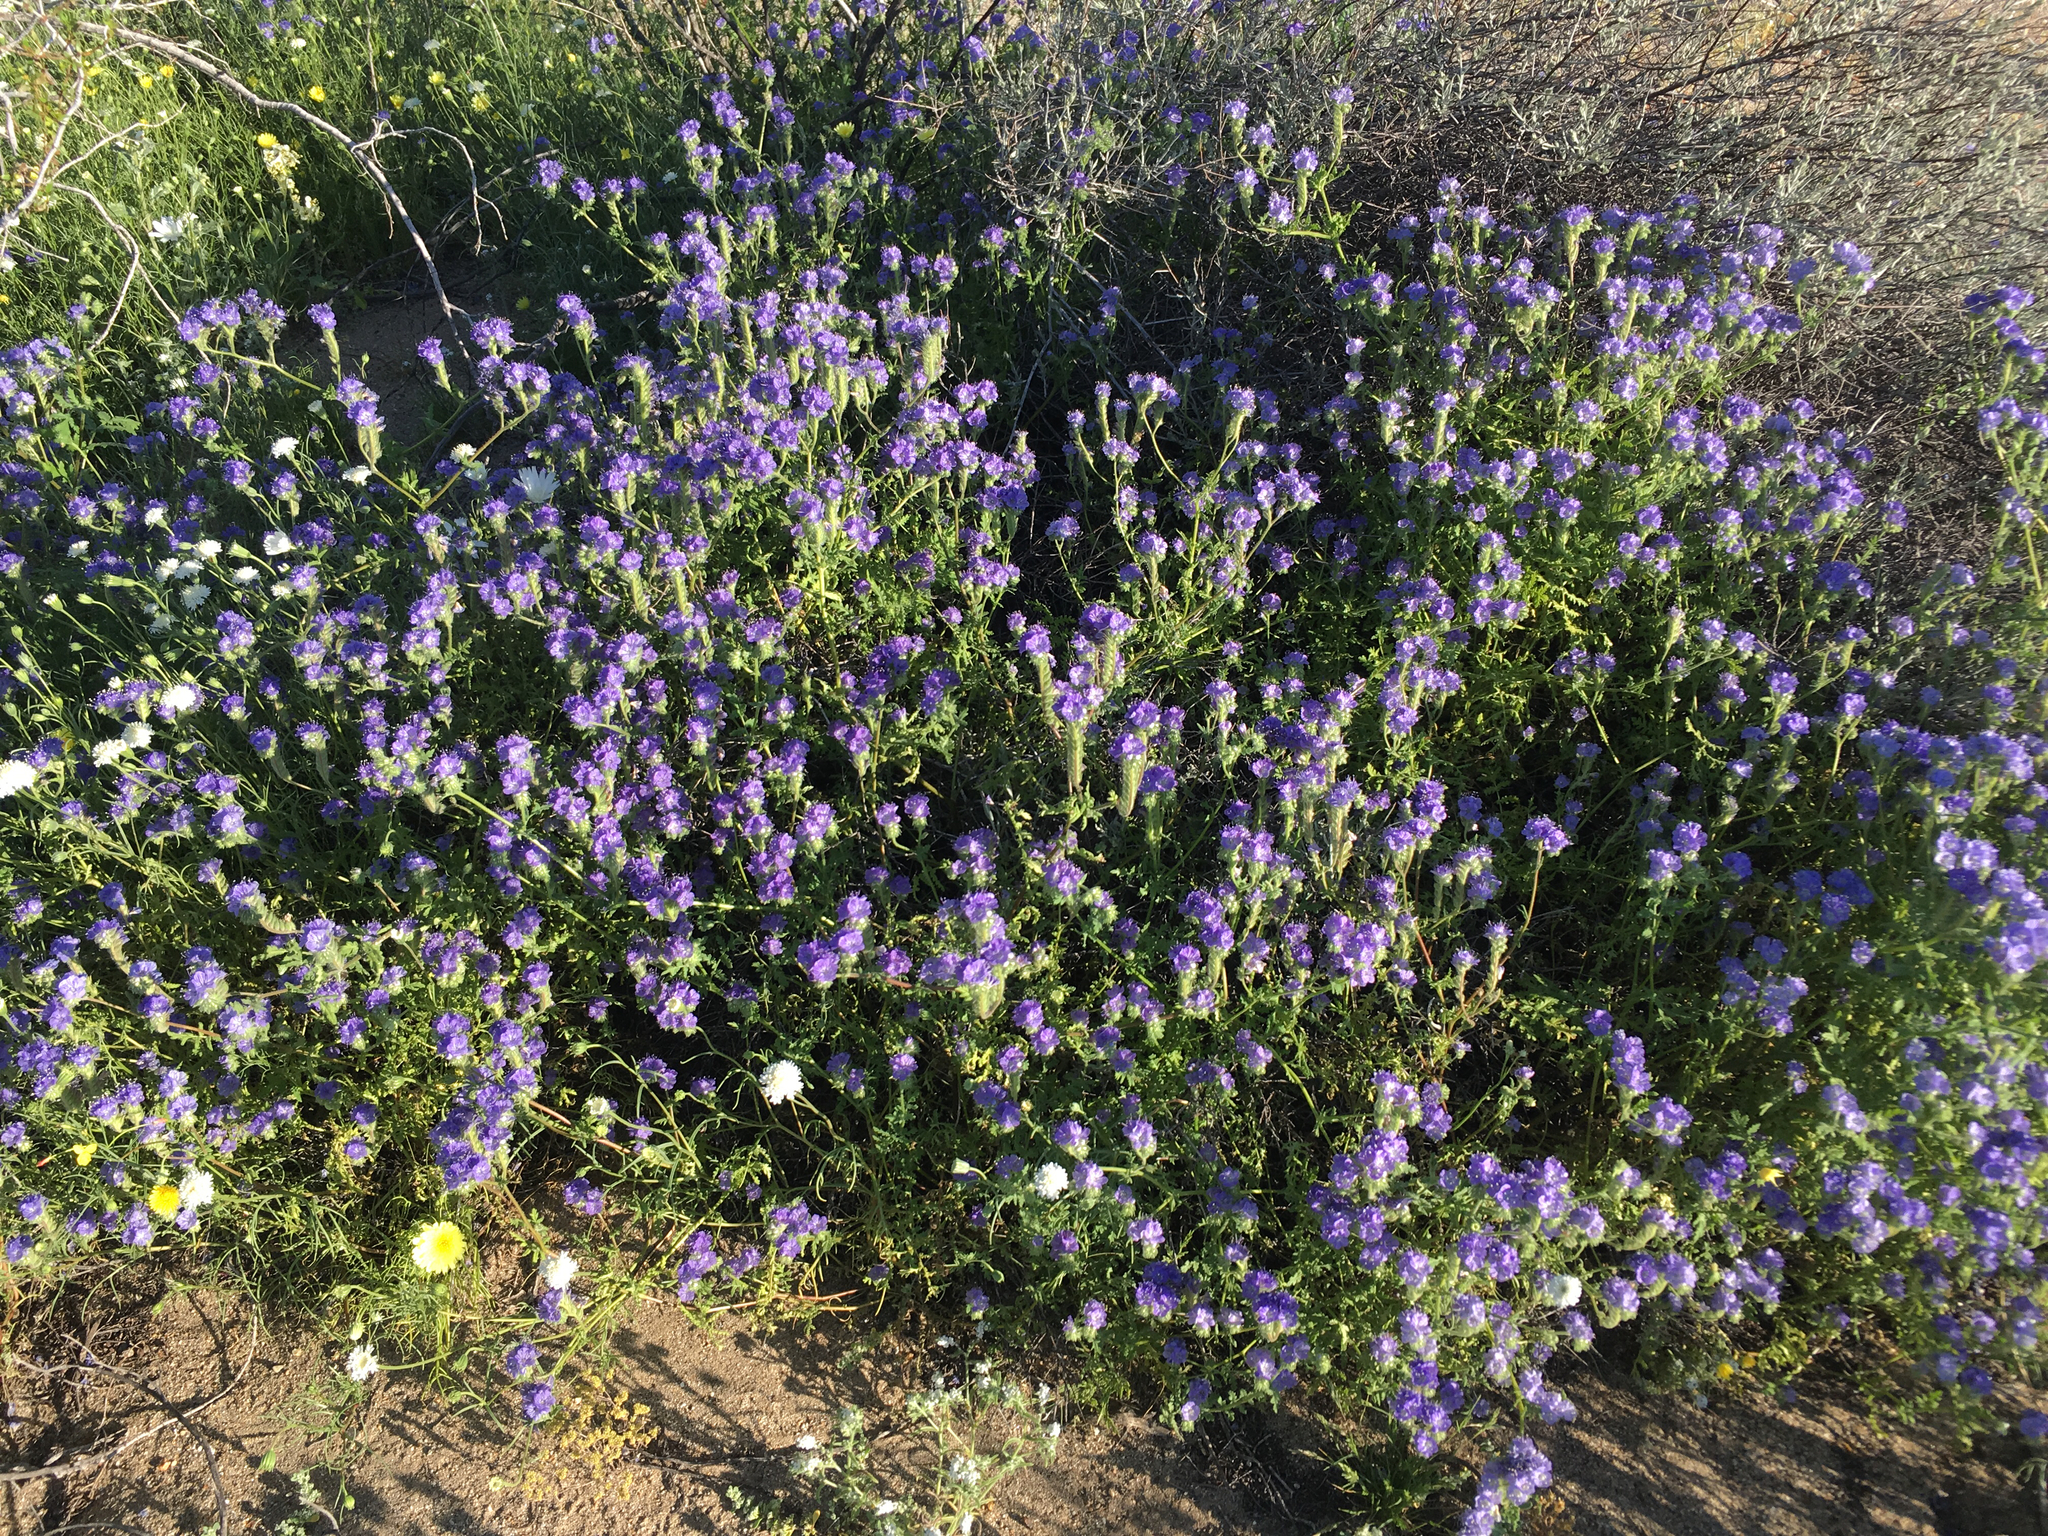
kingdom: Plantae
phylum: Tracheophyta
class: Magnoliopsida
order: Boraginales
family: Hydrophyllaceae
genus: Phacelia
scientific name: Phacelia distans
